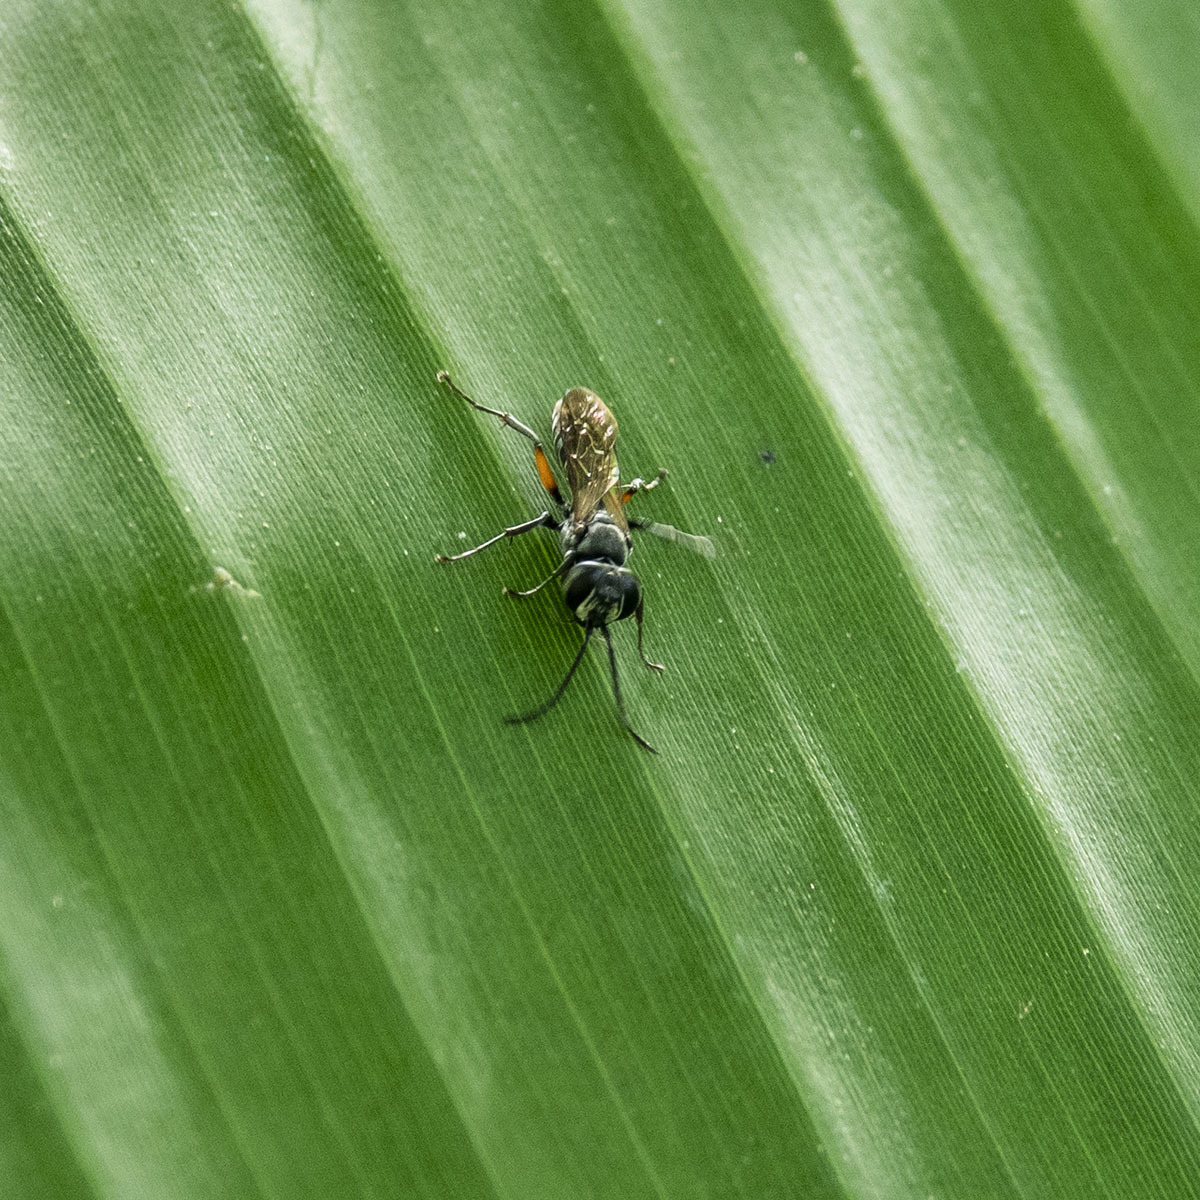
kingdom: Animalia
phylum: Arthropoda
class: Insecta
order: Hymenoptera
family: Crabronidae
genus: Liris
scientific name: Liris subtessellatus
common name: Crabronid wasp
